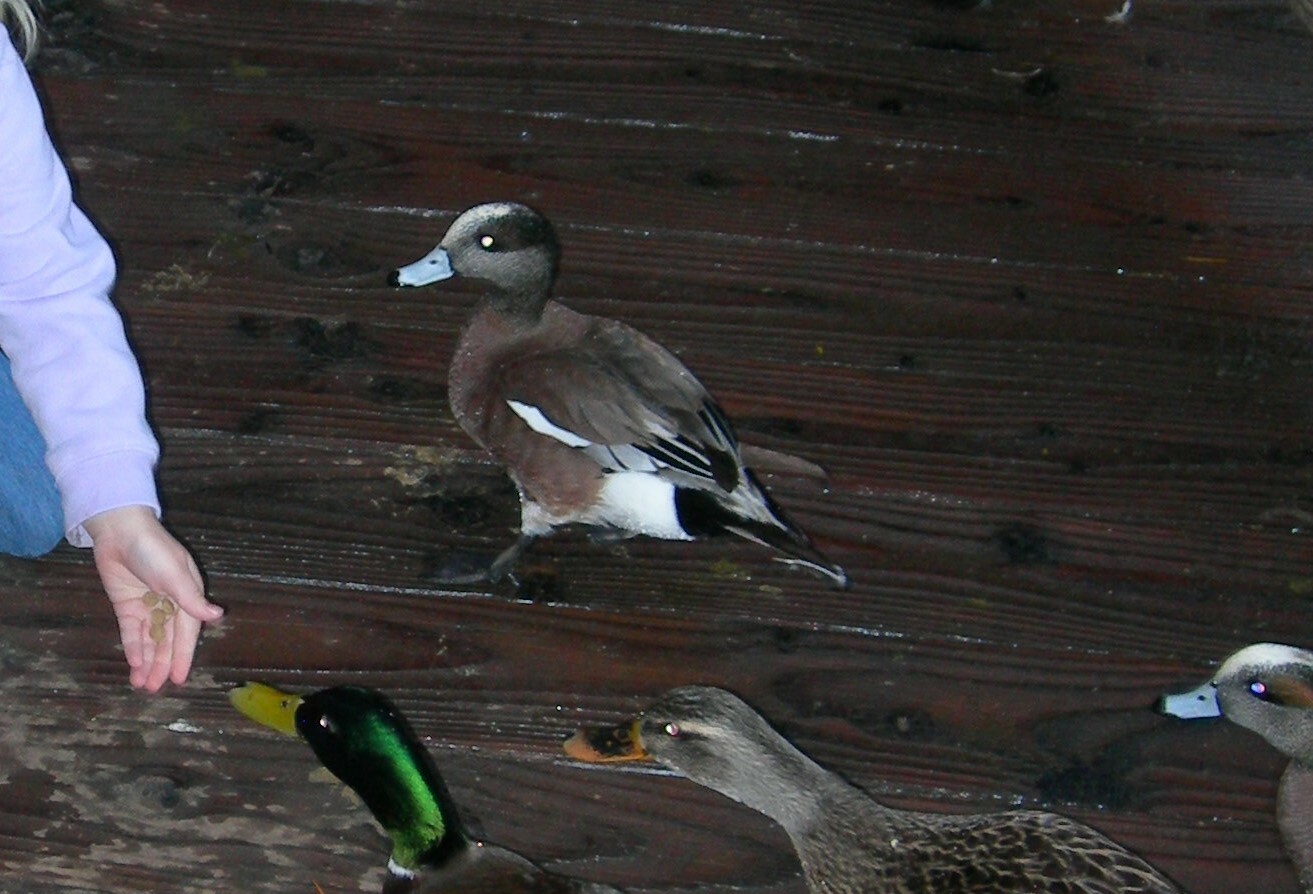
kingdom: Animalia
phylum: Chordata
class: Aves
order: Anseriformes
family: Anatidae
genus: Mareca
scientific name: Mareca americana
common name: American wigeon
